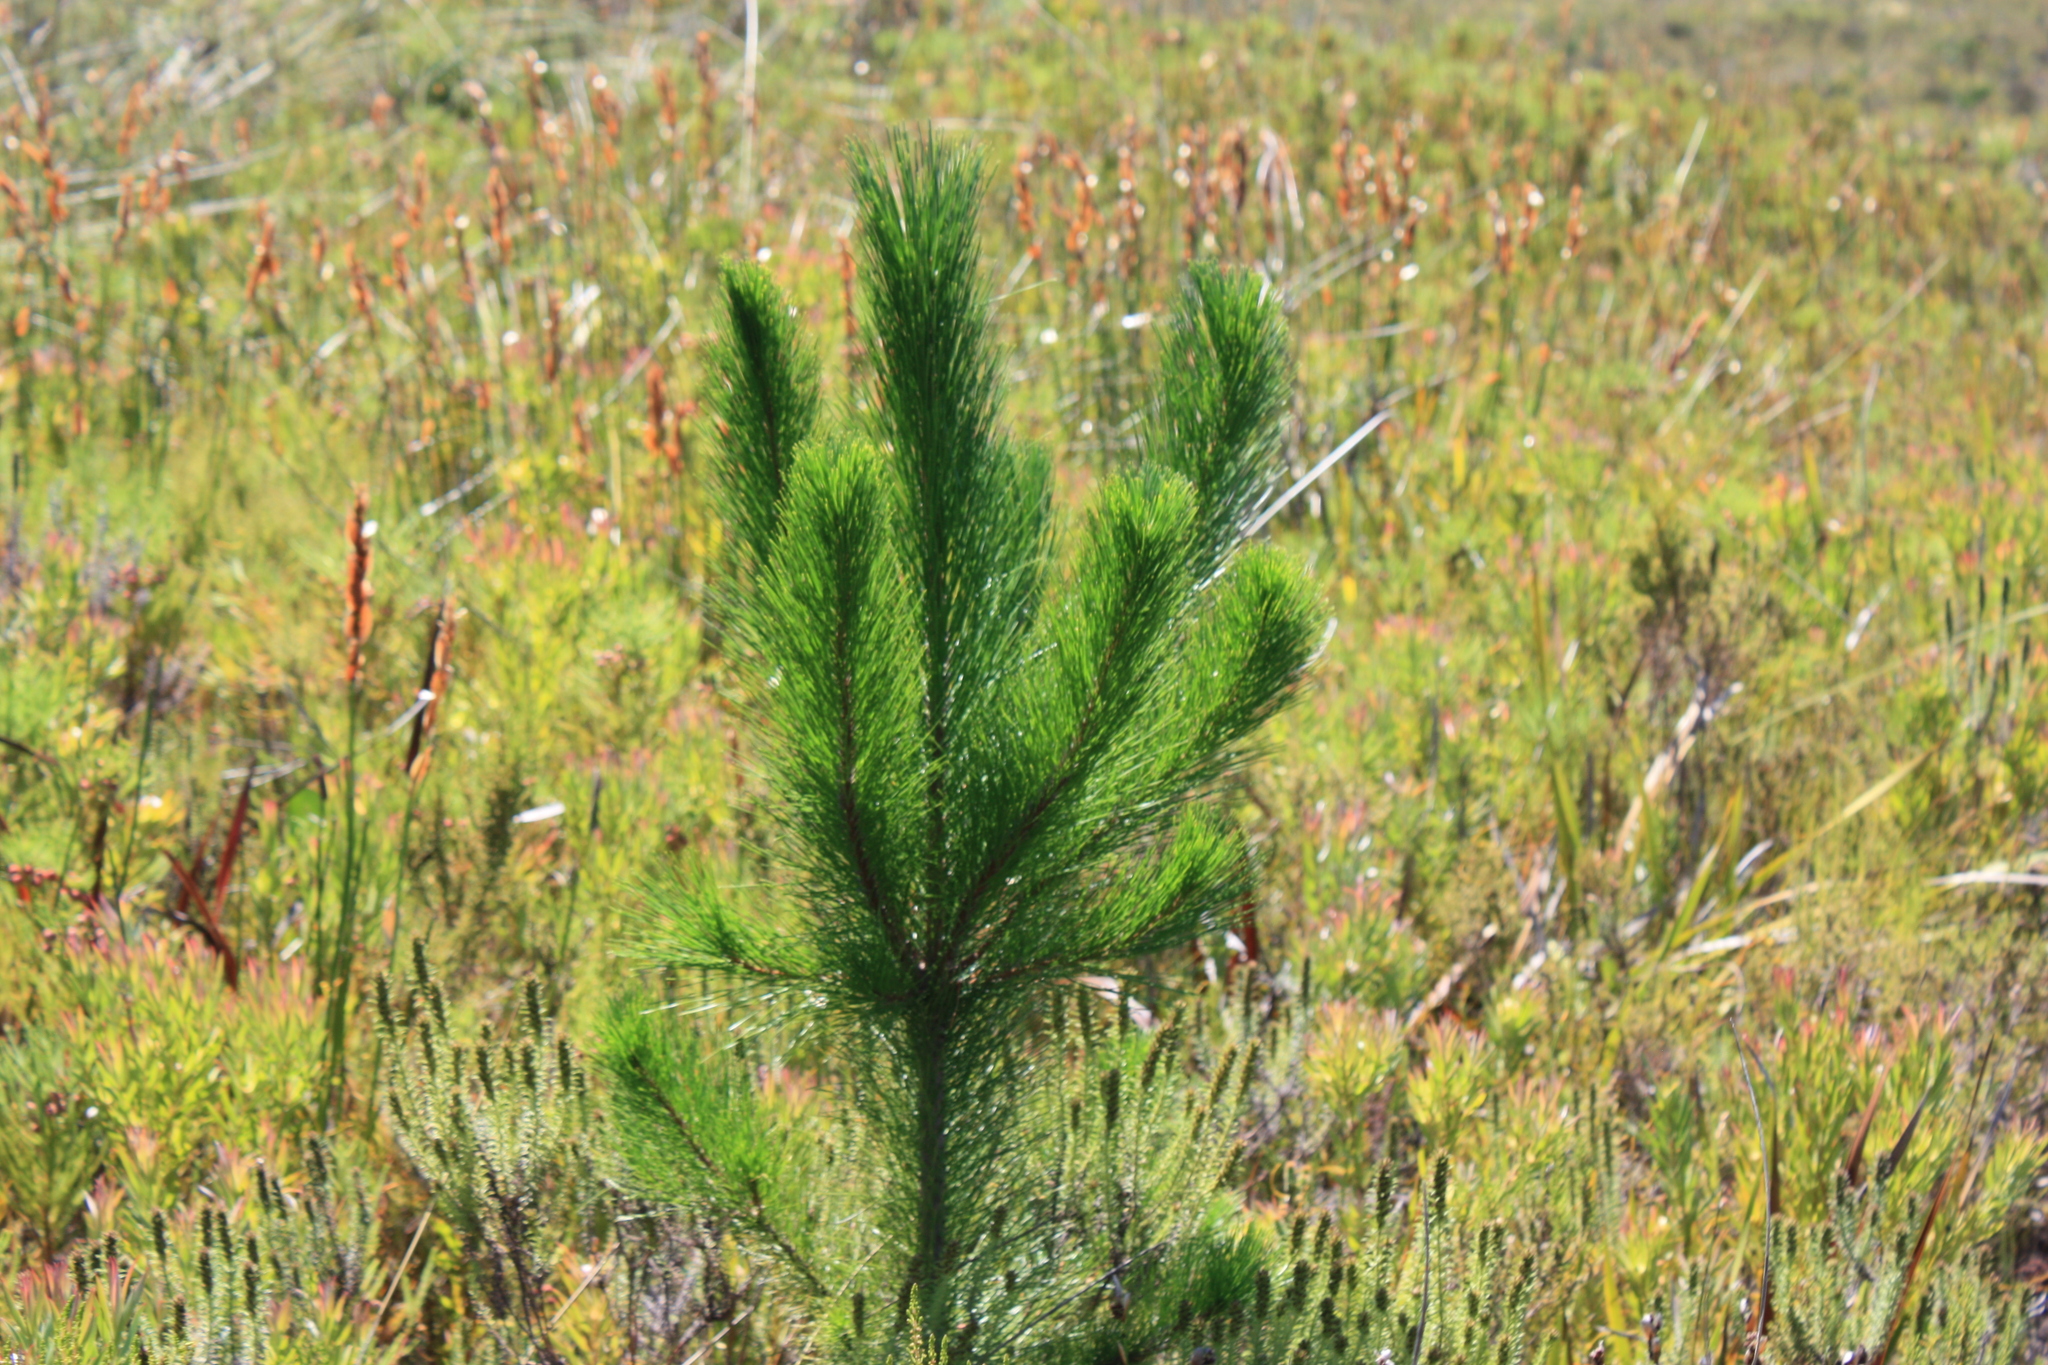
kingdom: Plantae
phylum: Tracheophyta
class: Pinopsida
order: Pinales
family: Pinaceae
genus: Pinus
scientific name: Pinus radiata
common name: Monterey pine
